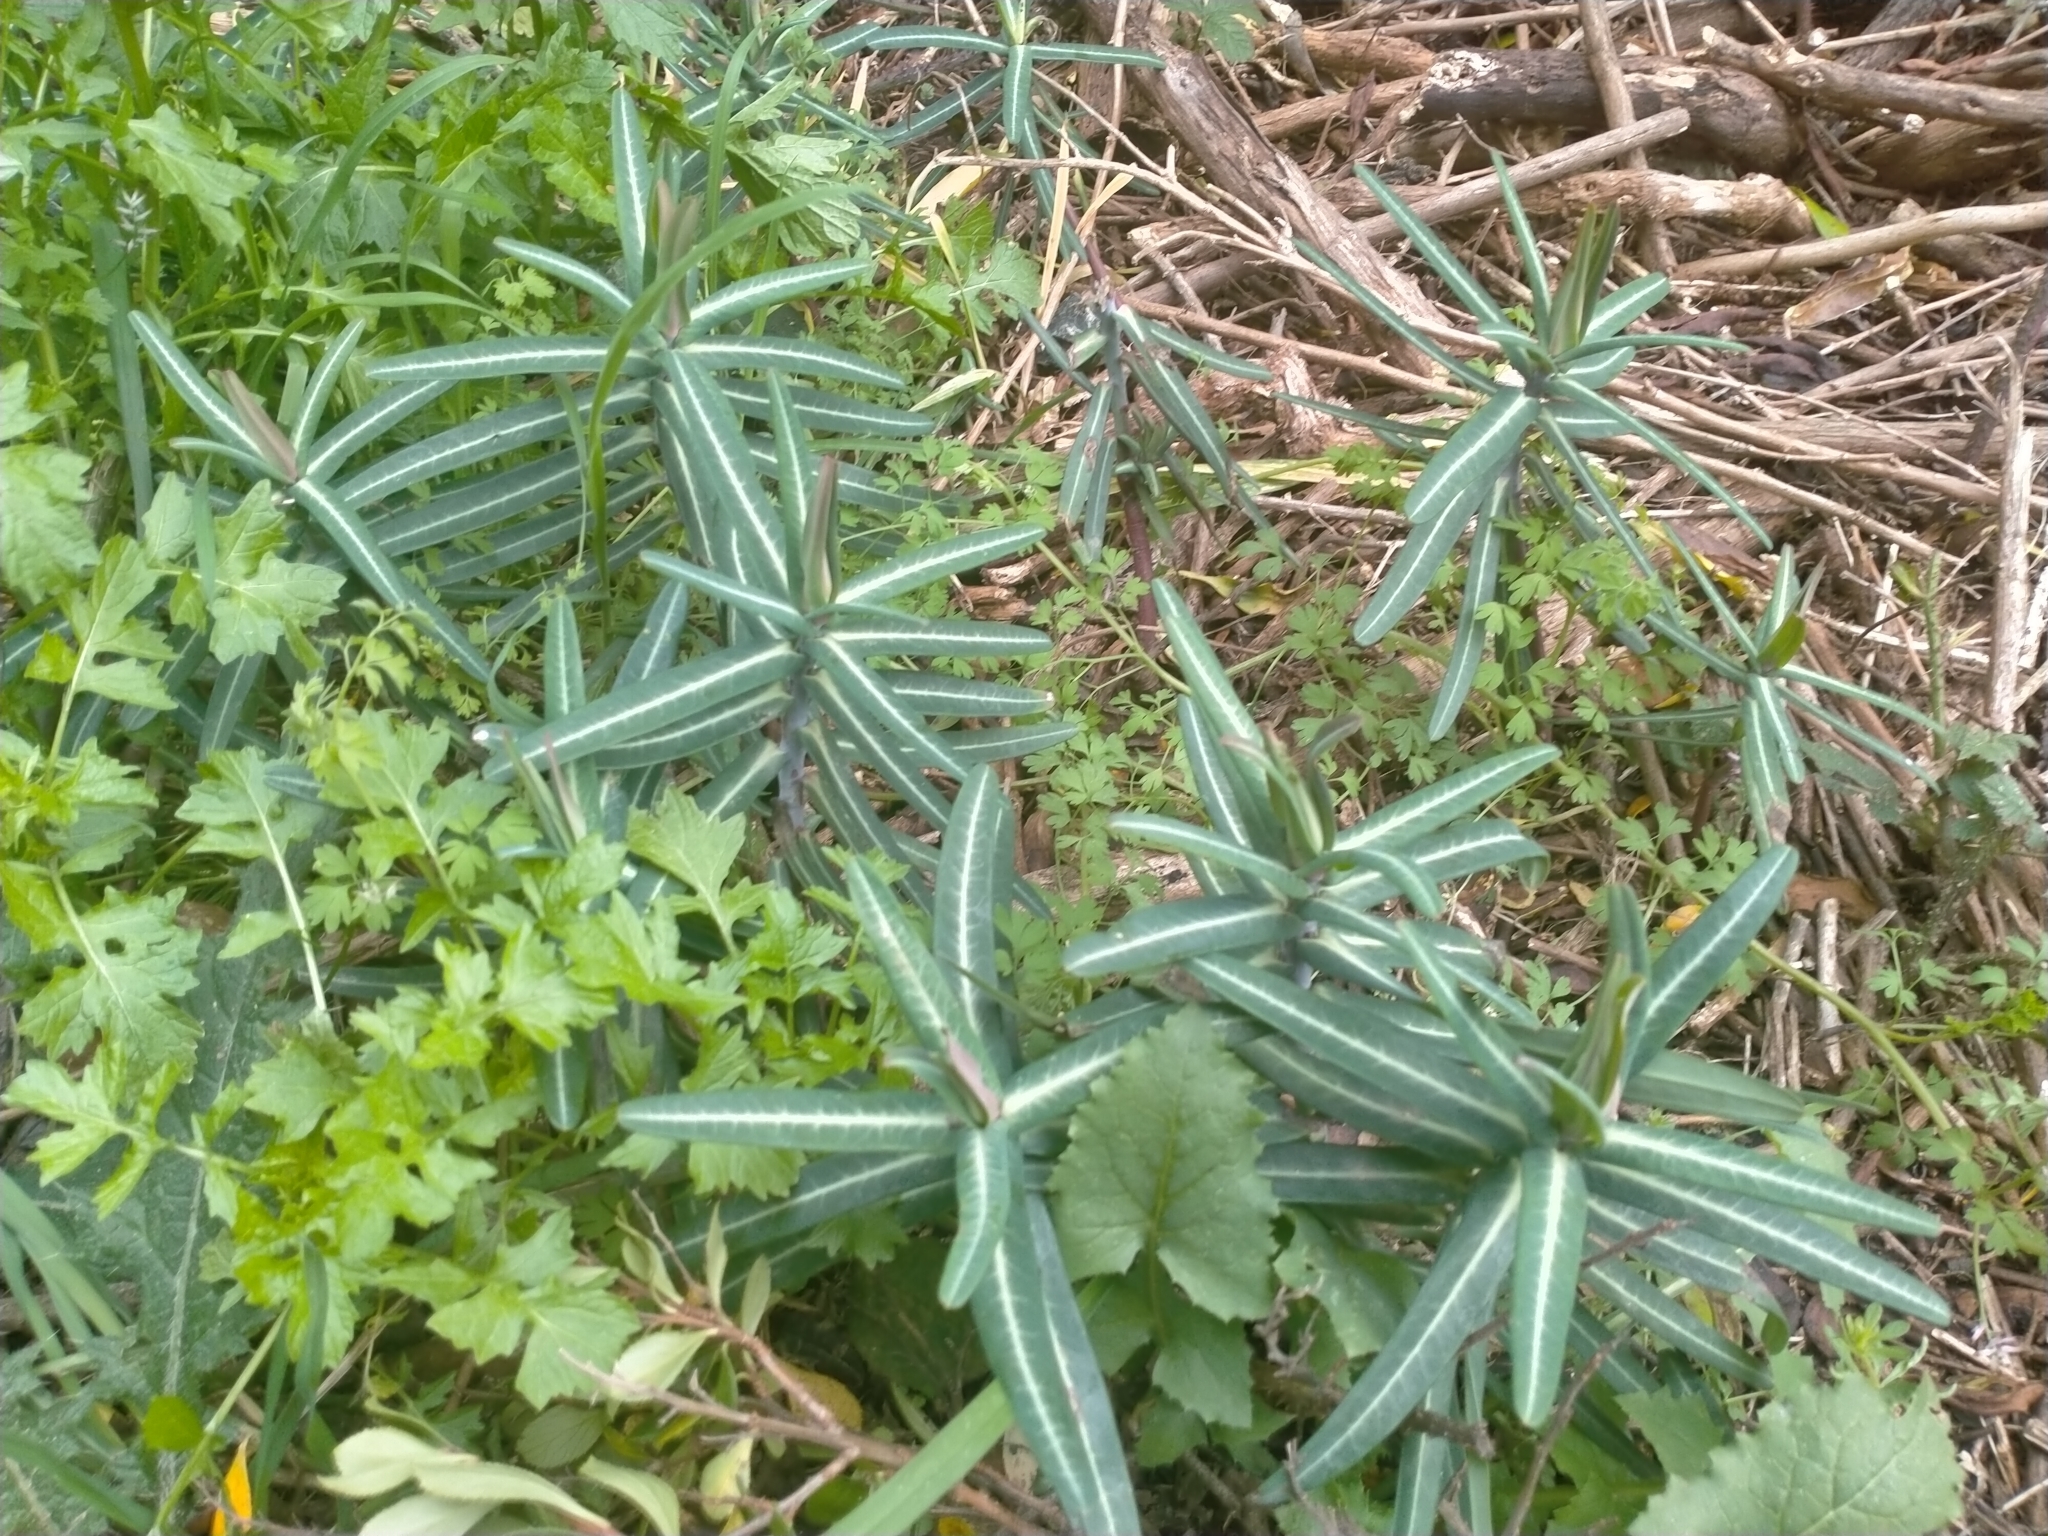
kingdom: Plantae
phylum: Tracheophyta
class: Magnoliopsida
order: Malpighiales
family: Euphorbiaceae
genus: Euphorbia
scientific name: Euphorbia lathyris
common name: Caper spurge
